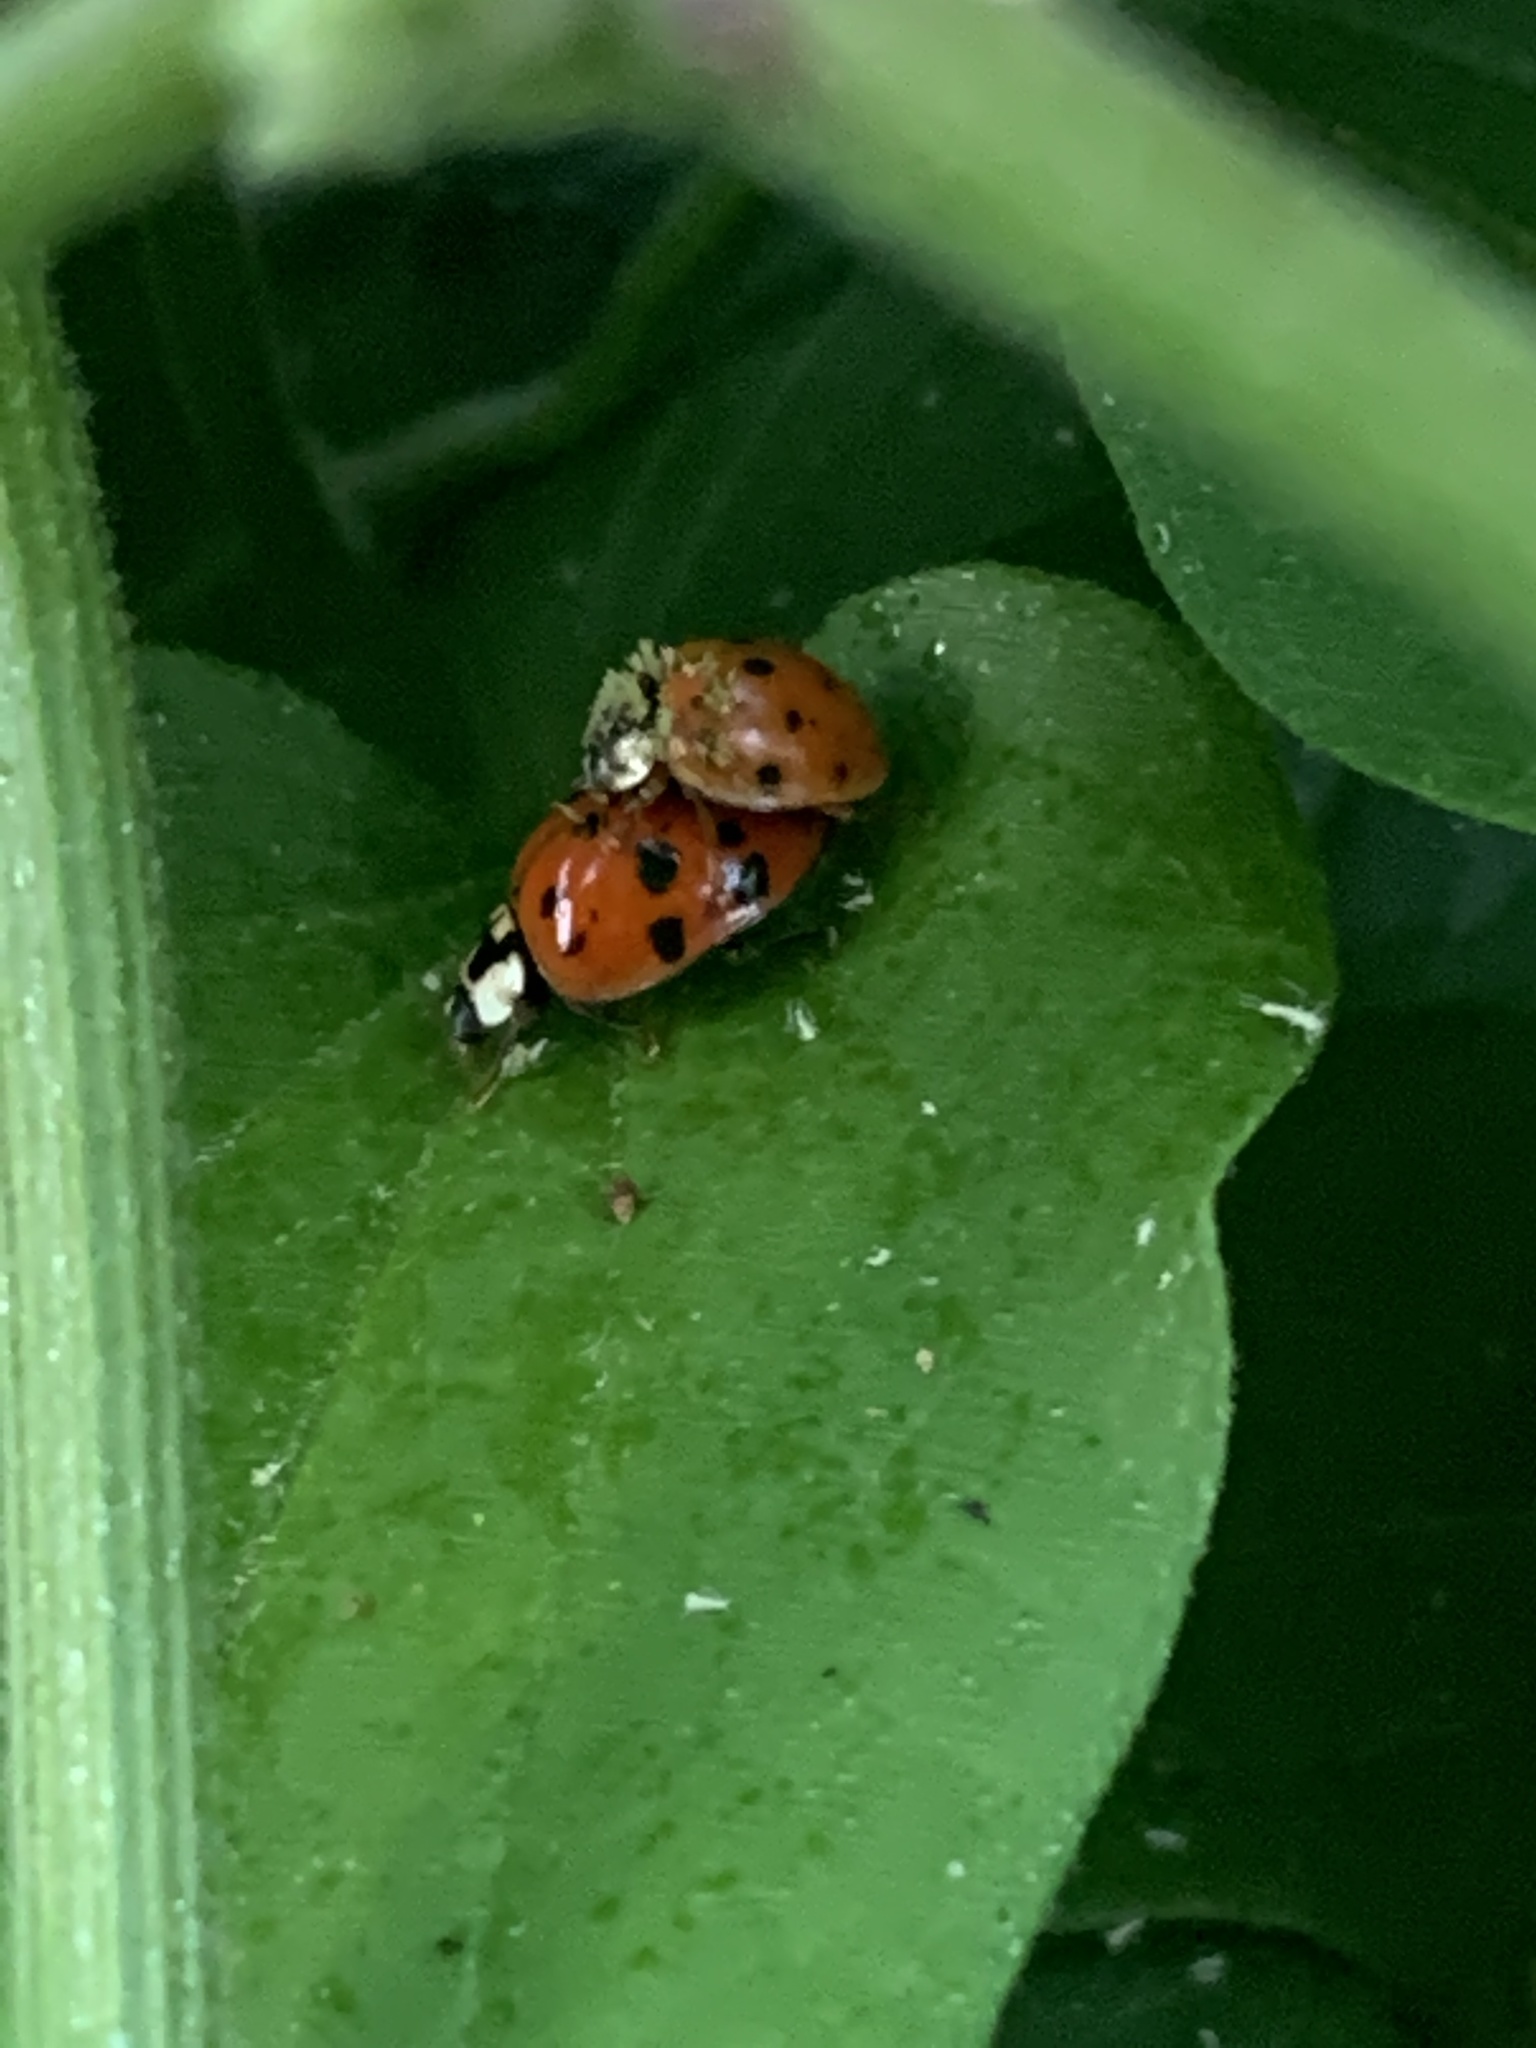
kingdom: Animalia
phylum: Arthropoda
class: Insecta
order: Coleoptera
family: Coccinellidae
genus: Harmonia
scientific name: Harmonia axyridis
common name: Harlequin ladybird
